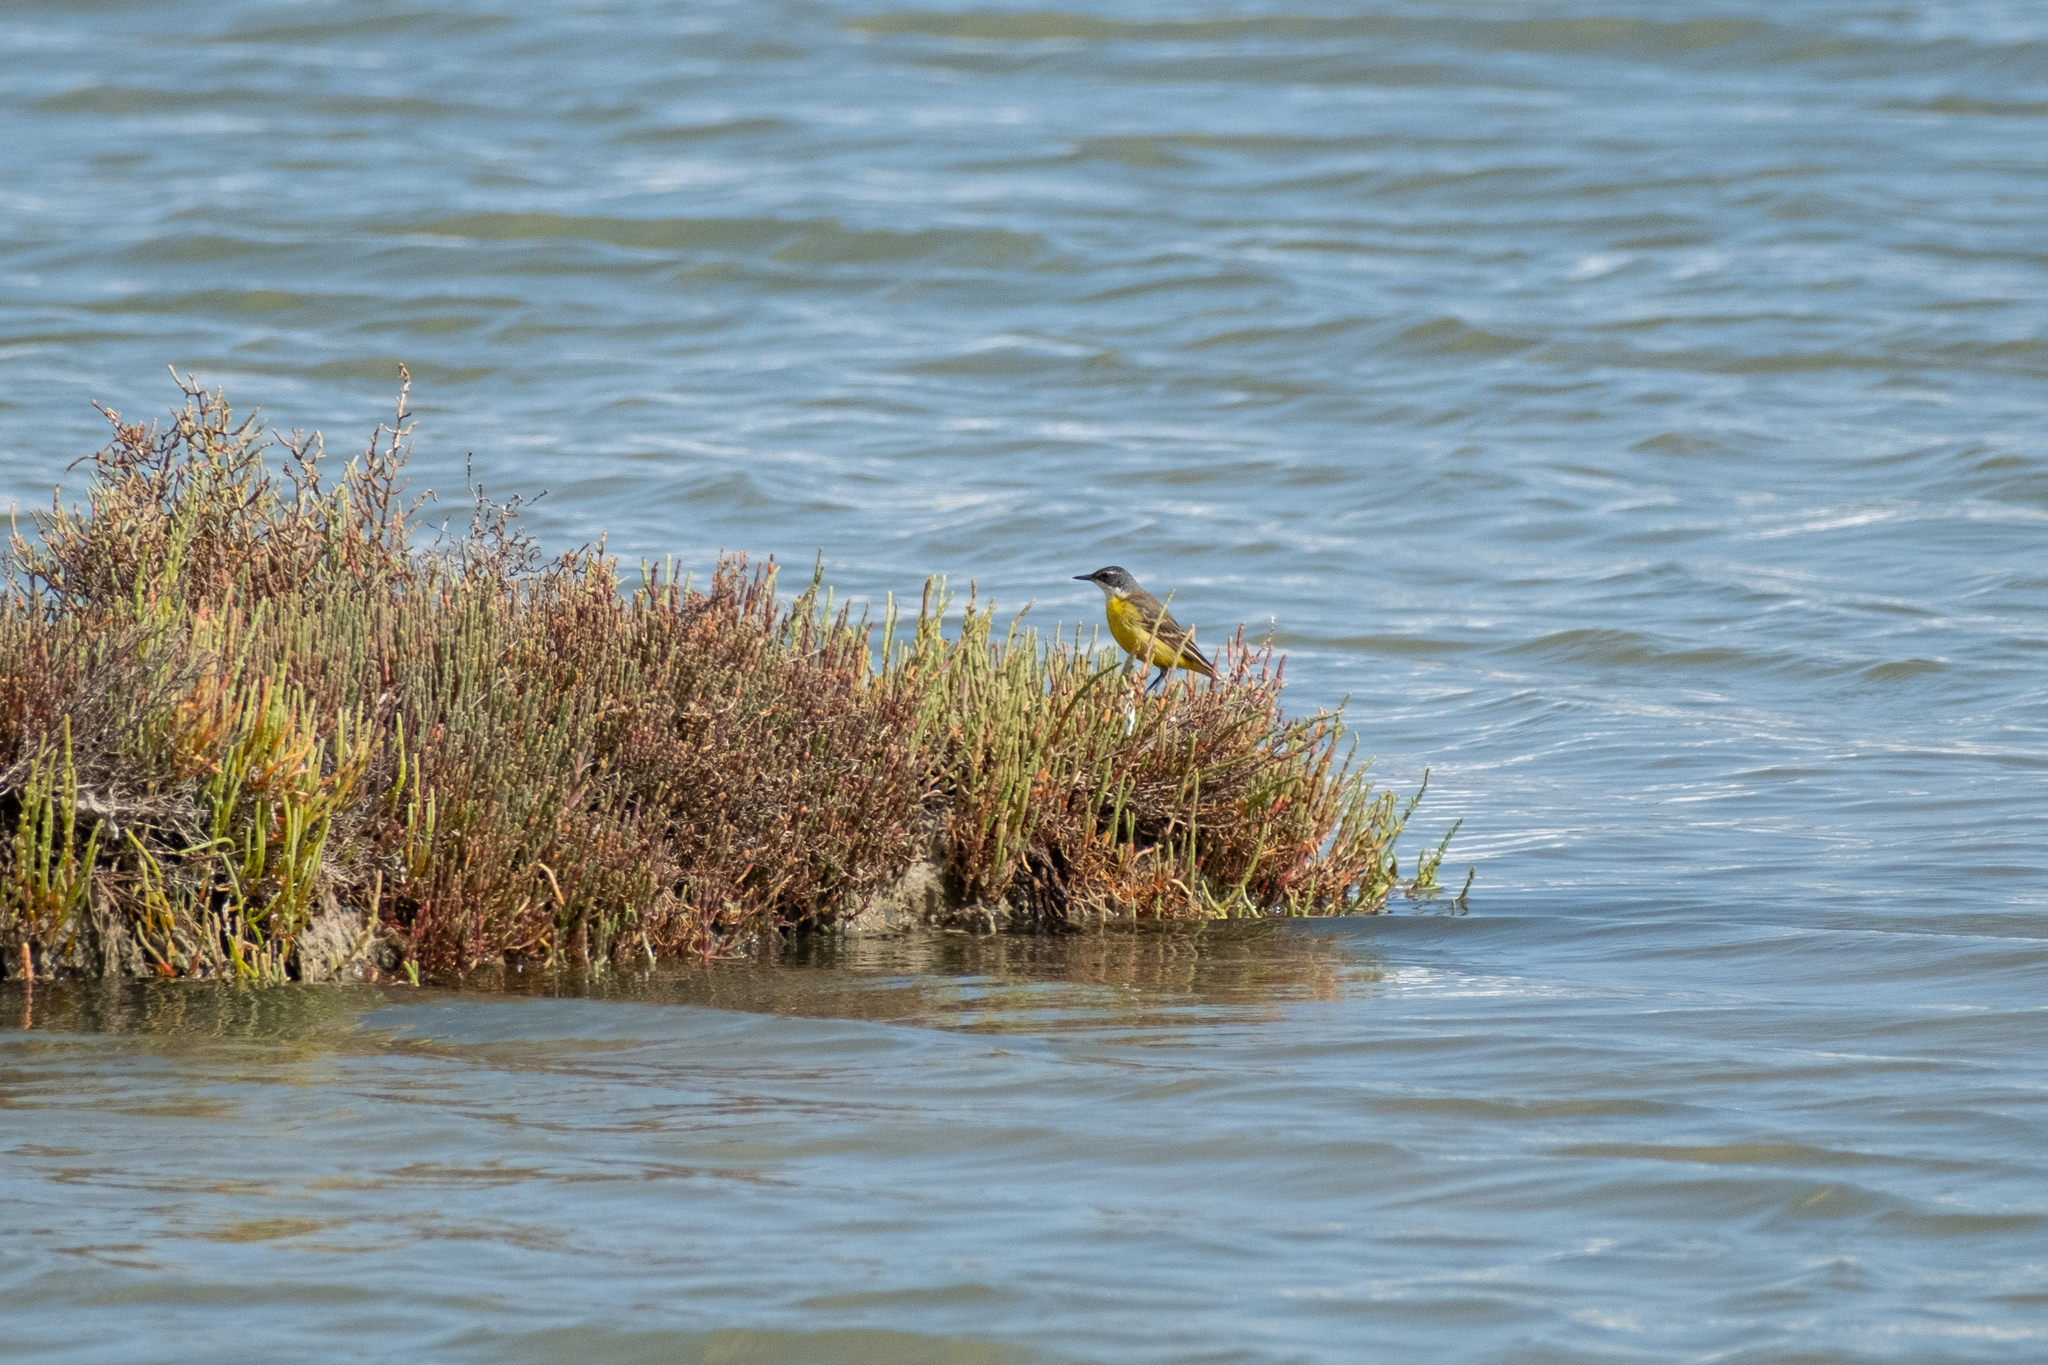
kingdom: Animalia
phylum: Chordata
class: Aves
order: Passeriformes
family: Motacillidae
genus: Motacilla
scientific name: Motacilla flava
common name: Western yellow wagtail
